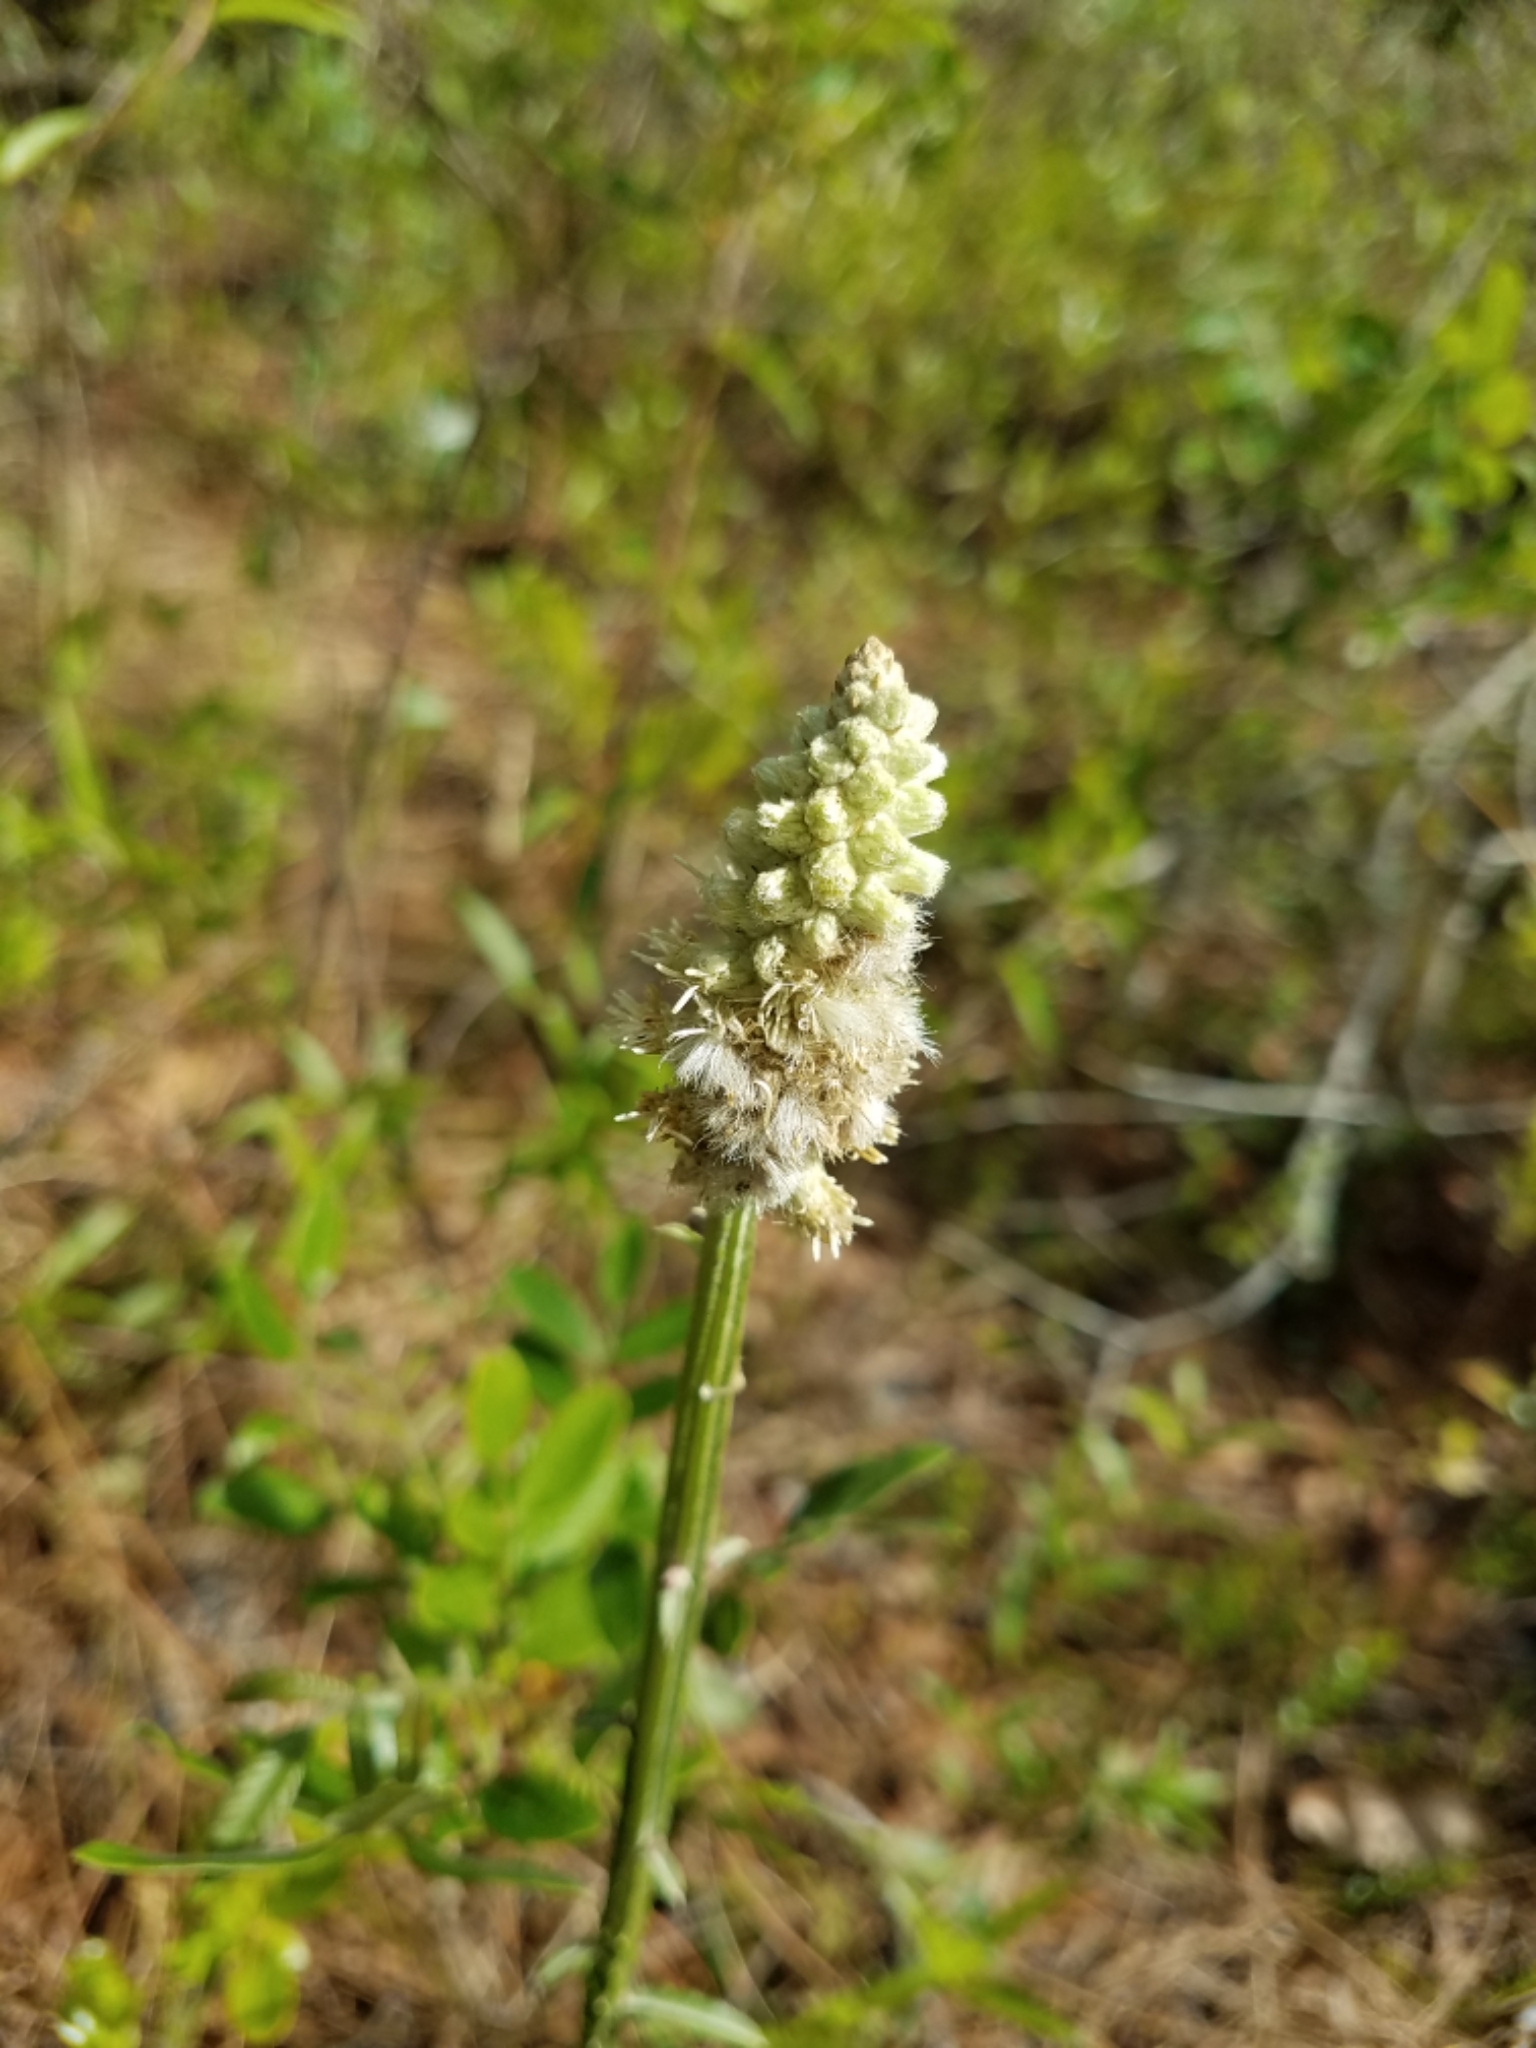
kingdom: Plantae
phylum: Tracheophyta
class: Magnoliopsida
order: Asterales
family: Asteraceae
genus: Pterocaulon
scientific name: Pterocaulon pycnostachyum
